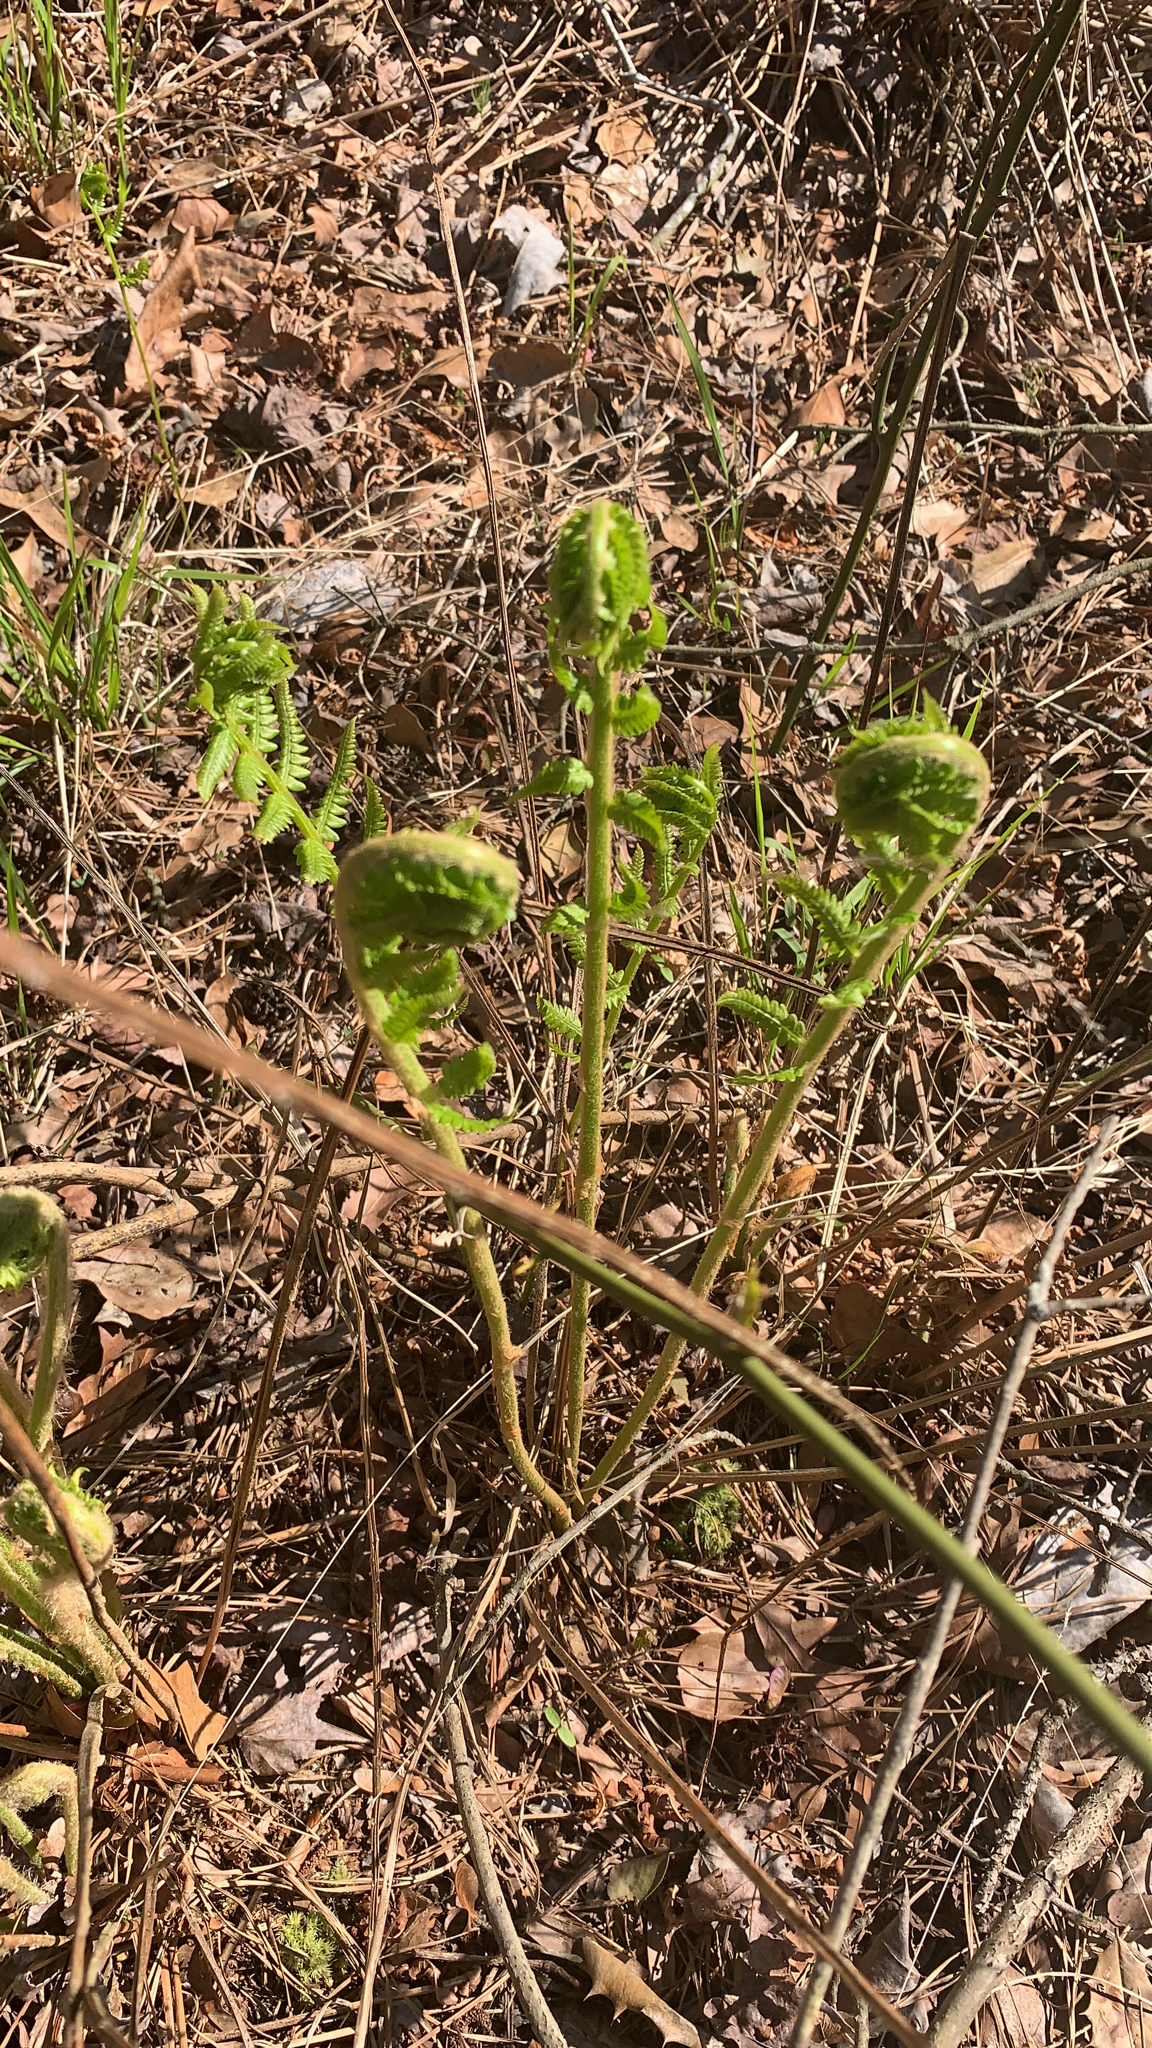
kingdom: Plantae
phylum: Tracheophyta
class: Polypodiopsida
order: Osmundales
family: Osmundaceae
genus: Osmundastrum
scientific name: Osmundastrum cinnamomeum
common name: Cinnamon fern
